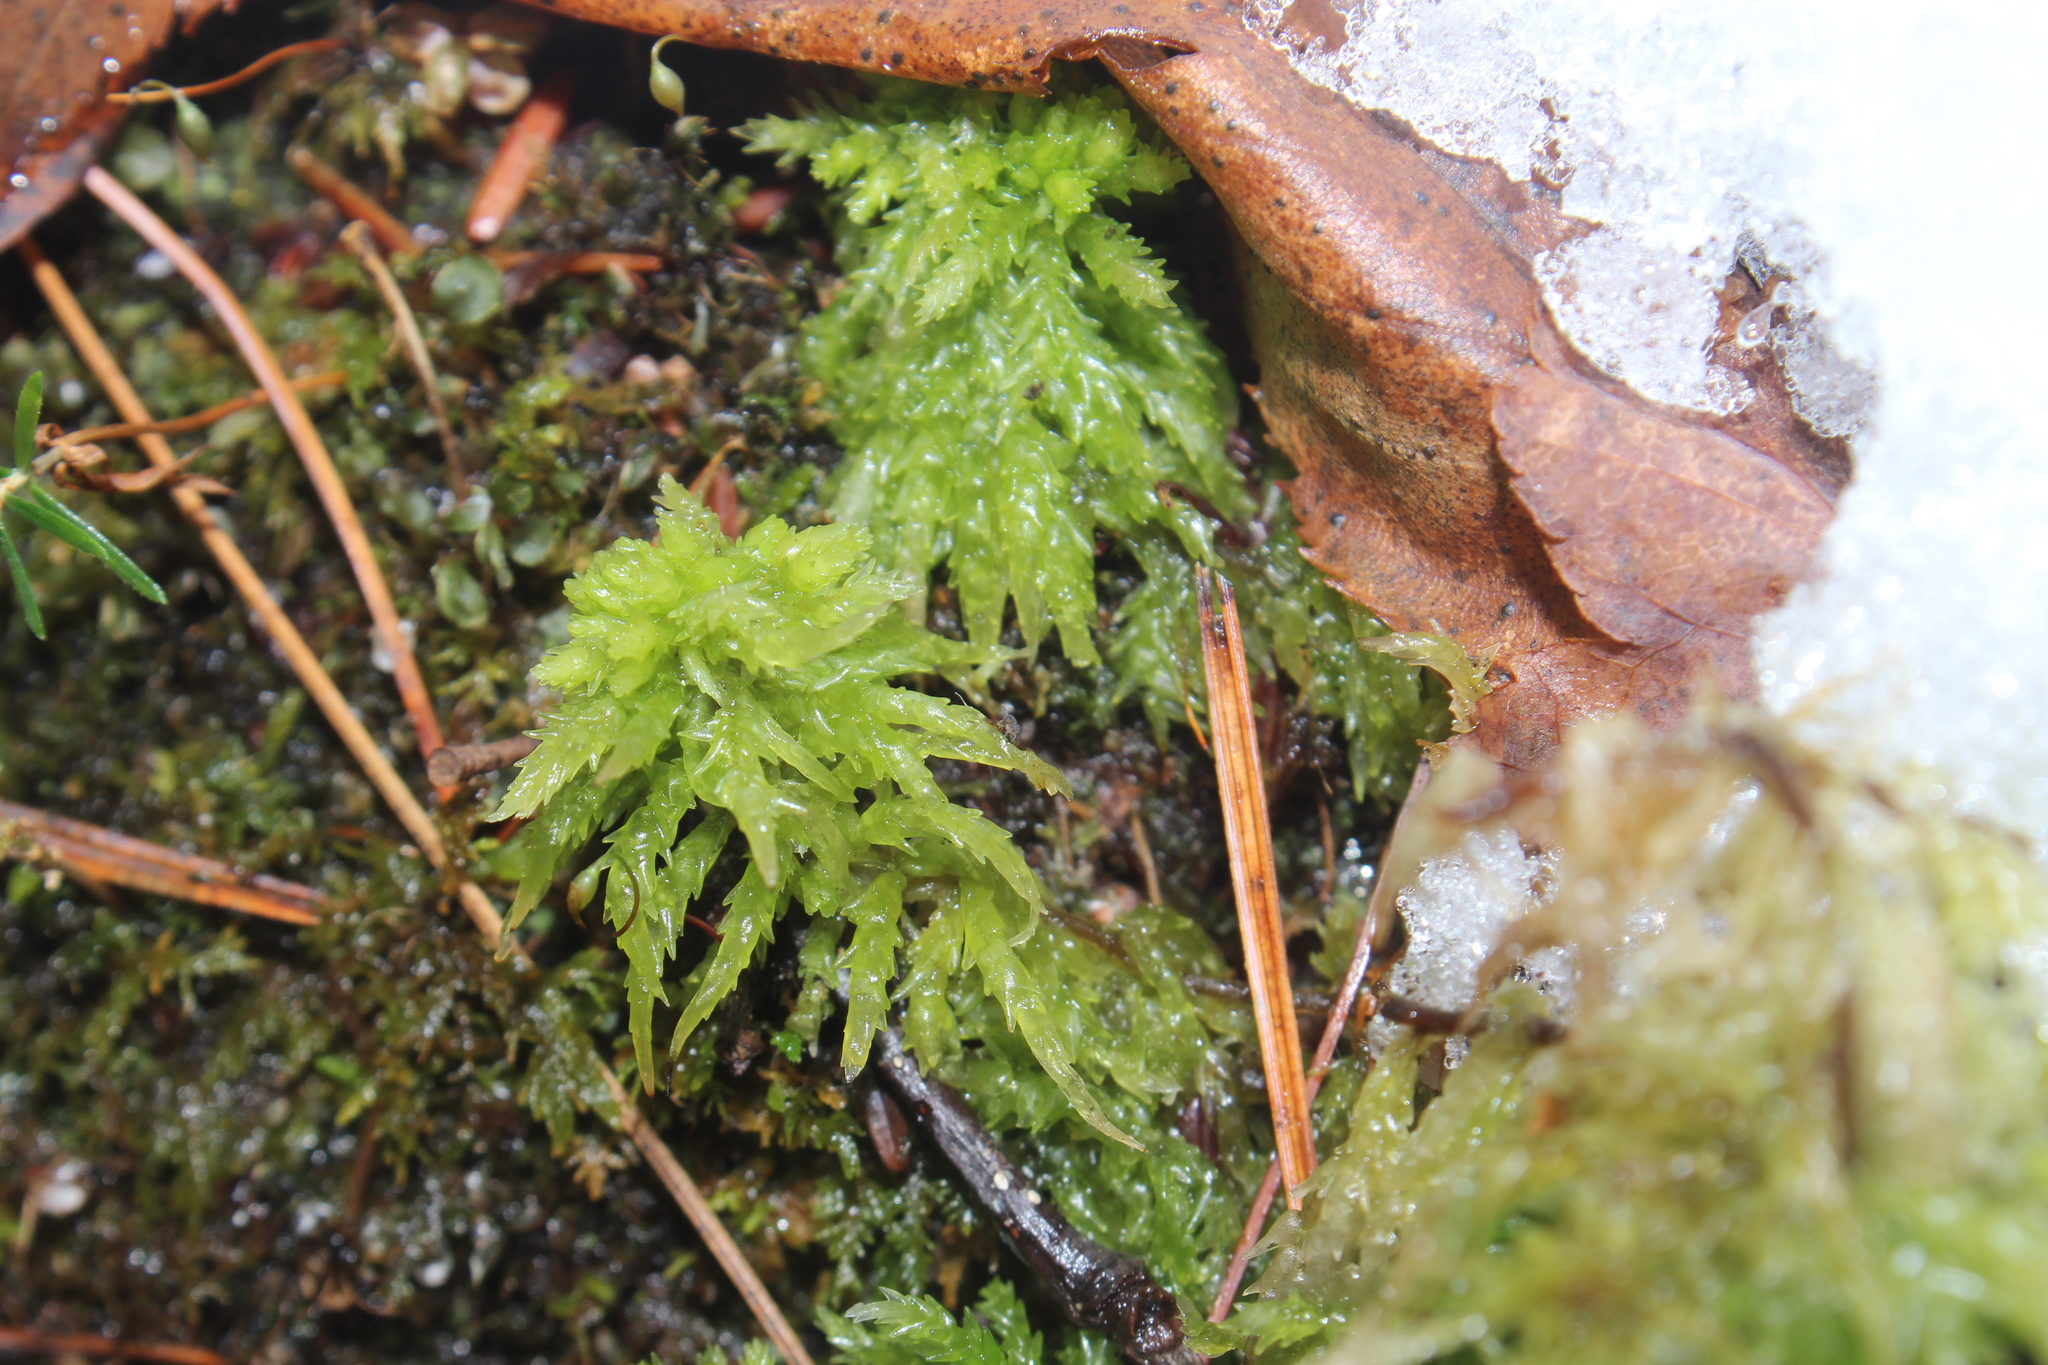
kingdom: Plantae
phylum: Bryophyta
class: Sphagnopsida
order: Sphagnales
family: Sphagnaceae
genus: Sphagnum
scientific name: Sphagnum palustre
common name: Blunt-leaved bog-moss
